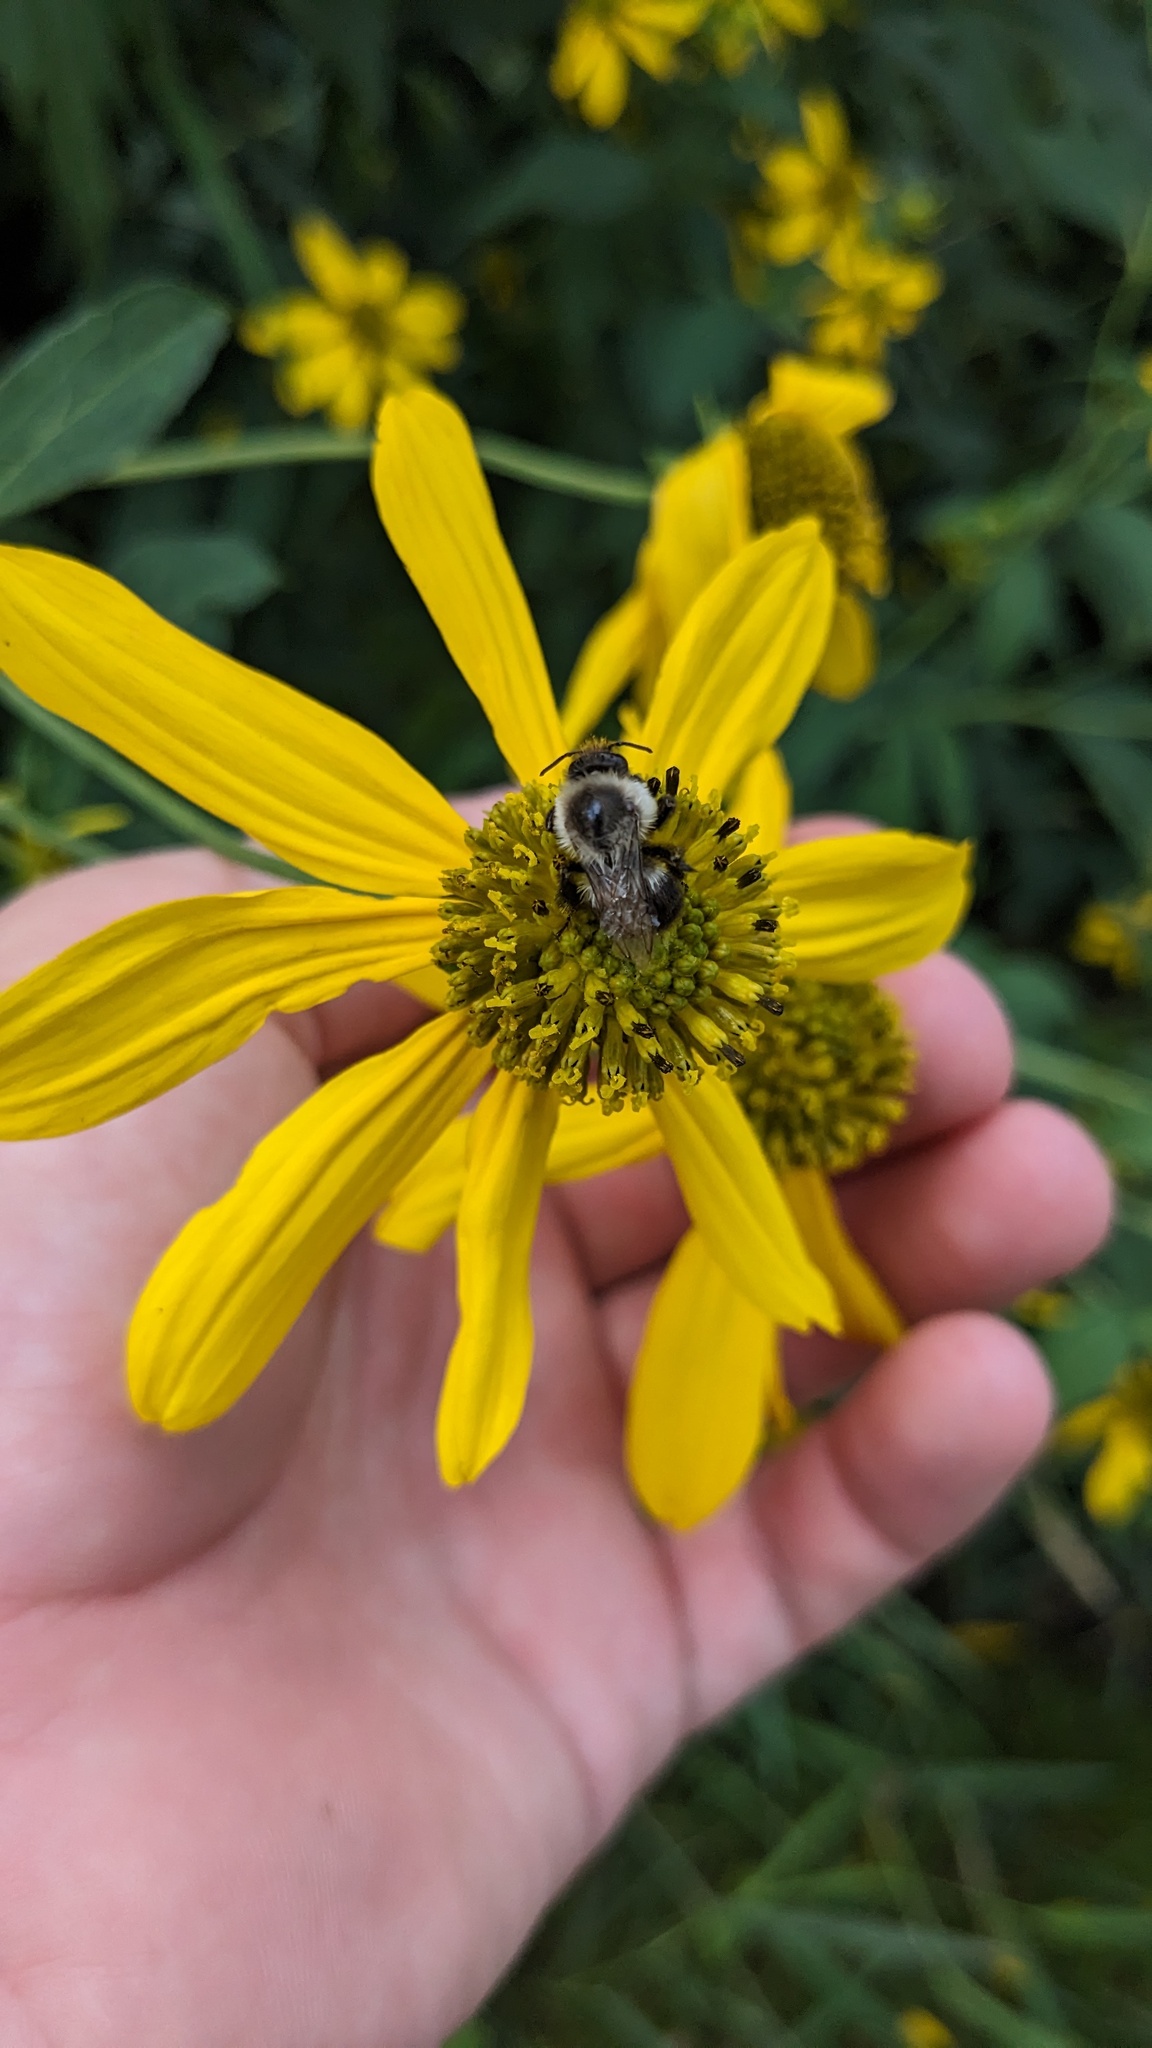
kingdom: Animalia
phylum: Arthropoda
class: Insecta
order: Hymenoptera
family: Apidae
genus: Bombus
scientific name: Bombus impatiens
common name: Common eastern bumble bee
